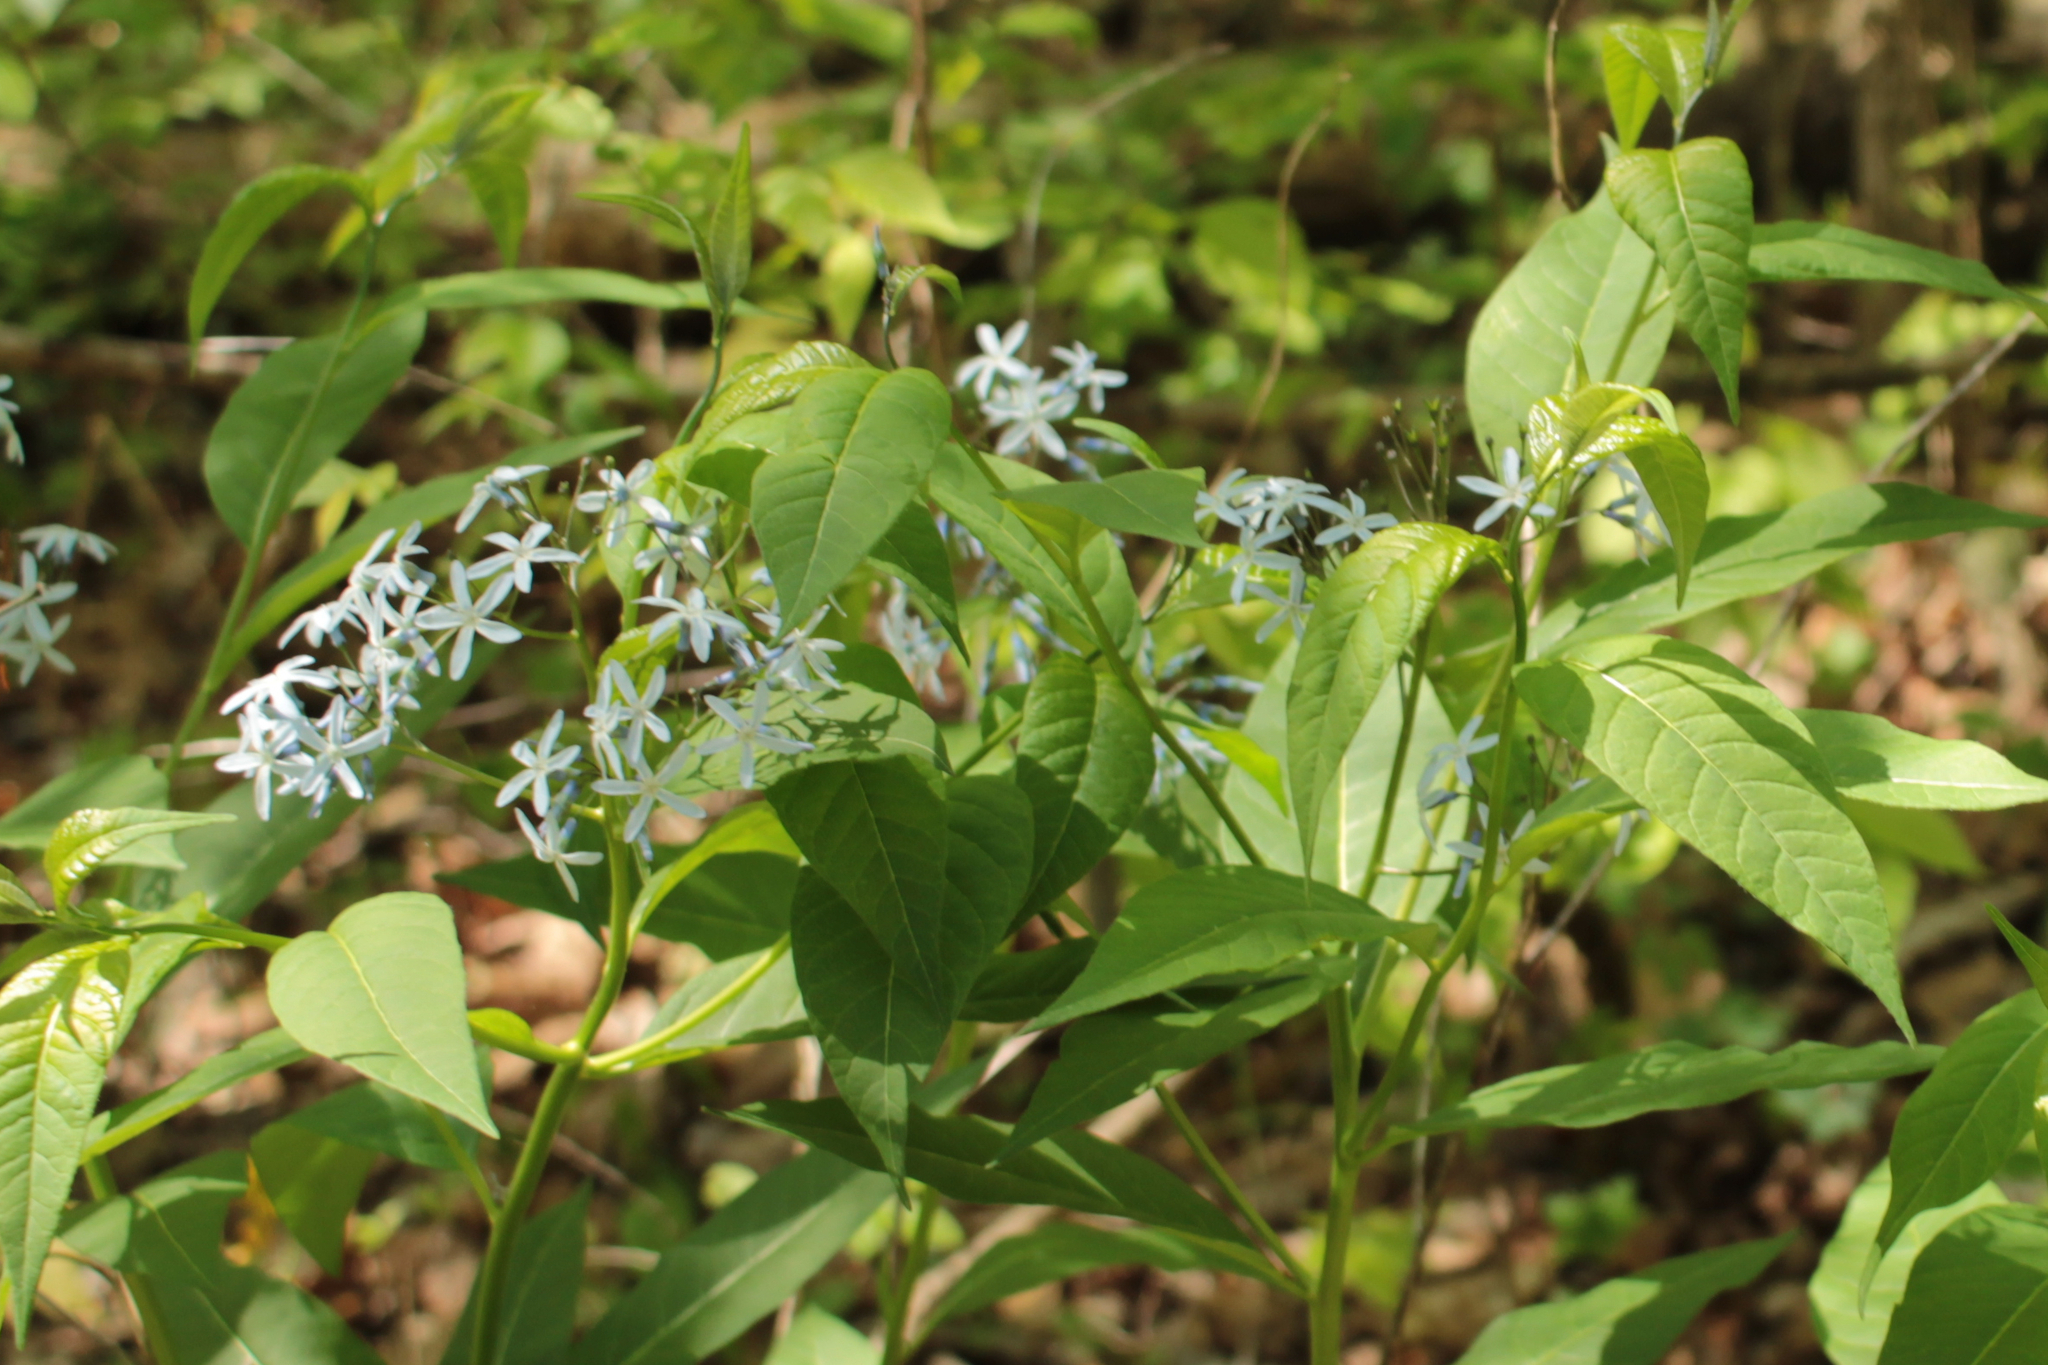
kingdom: Plantae
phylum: Tracheophyta
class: Magnoliopsida
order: Gentianales
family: Apocynaceae
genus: Amsonia
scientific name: Amsonia tabernaemontana
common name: Texas-star
